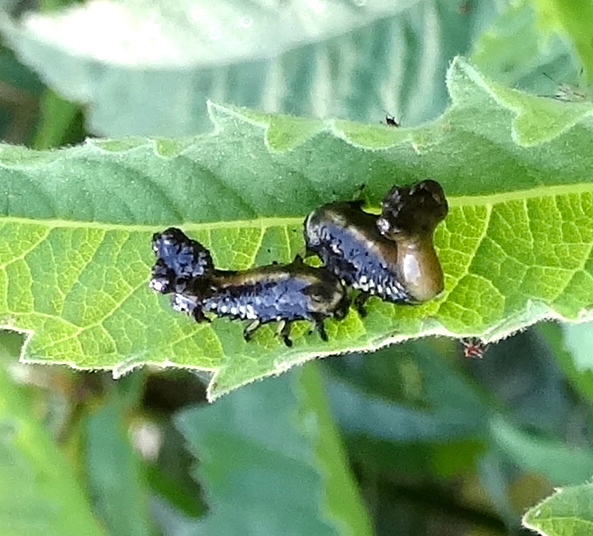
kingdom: Animalia
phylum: Arthropoda
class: Insecta
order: Coleoptera
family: Chrysomelidae
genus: Physonota
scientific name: Physonota arizonae
